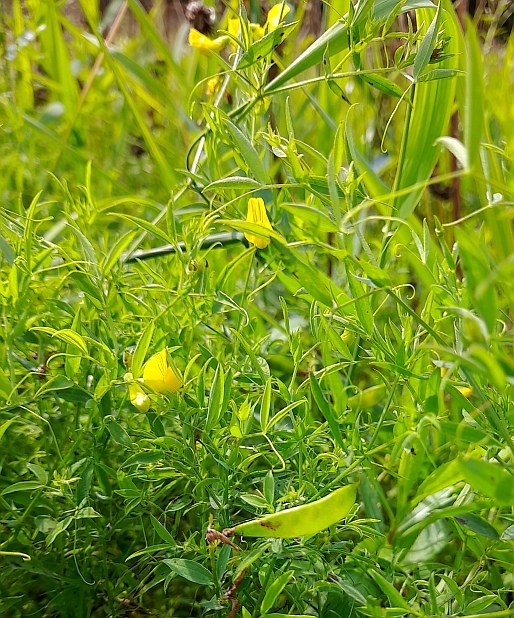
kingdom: Plantae
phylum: Tracheophyta
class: Magnoliopsida
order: Fabales
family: Fabaceae
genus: Lathyrus
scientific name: Lathyrus pratensis
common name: Meadow vetchling
